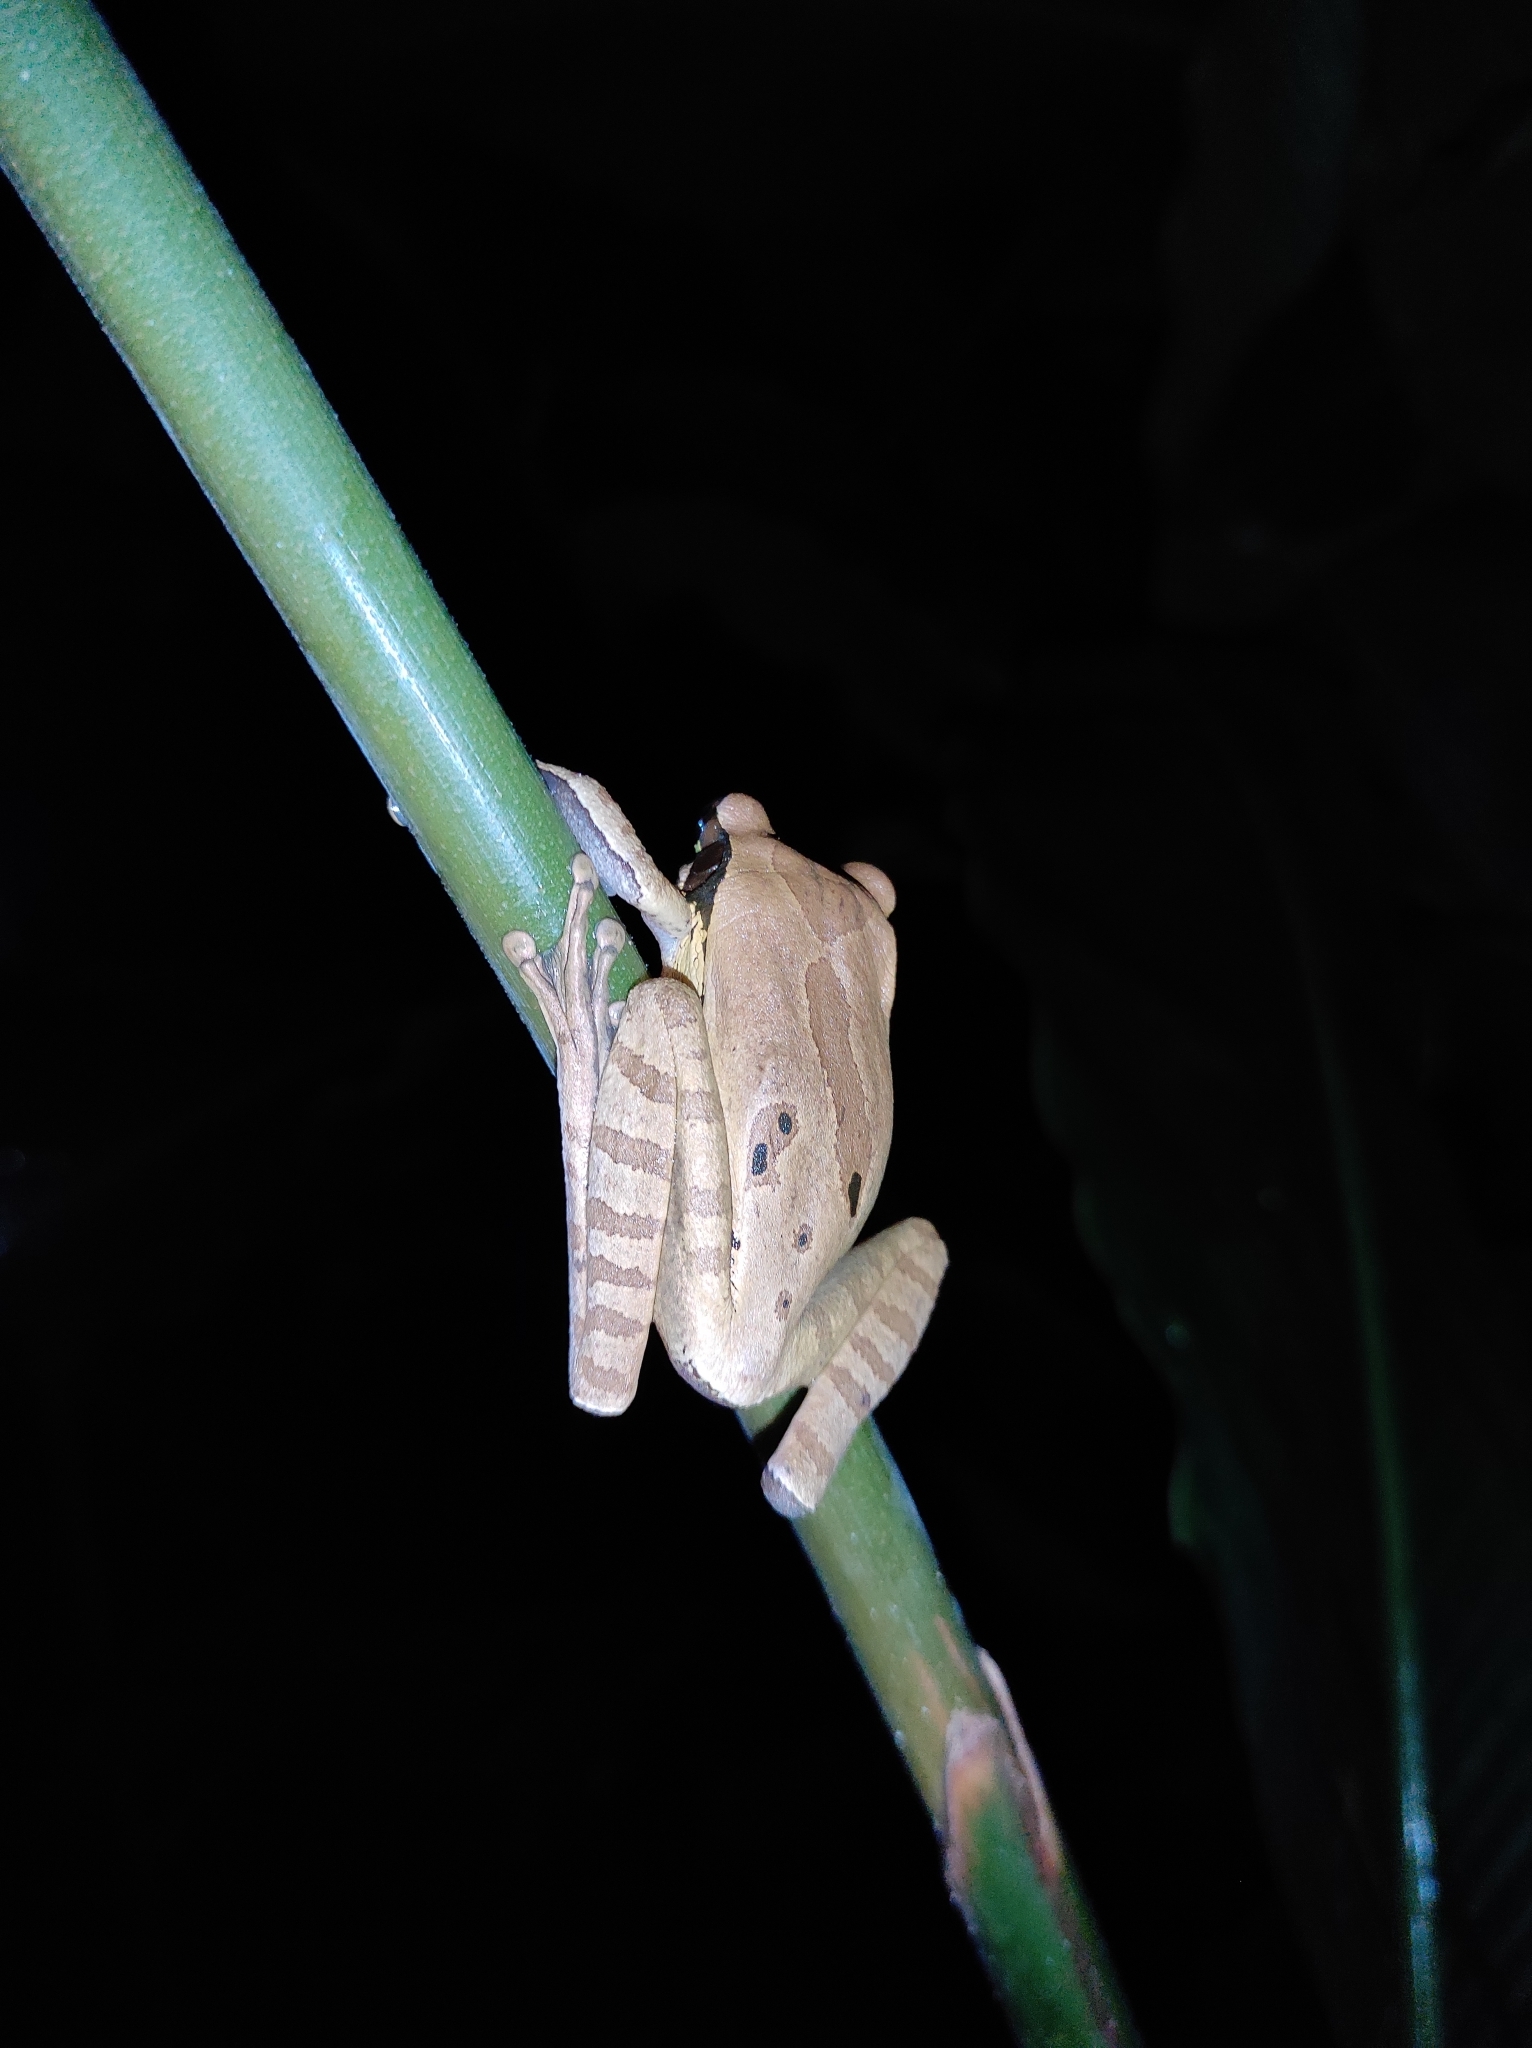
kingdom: Animalia
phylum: Chordata
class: Amphibia
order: Anura
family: Hylidae
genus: Smilisca
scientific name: Smilisca phaeota
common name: Central american smilisca
